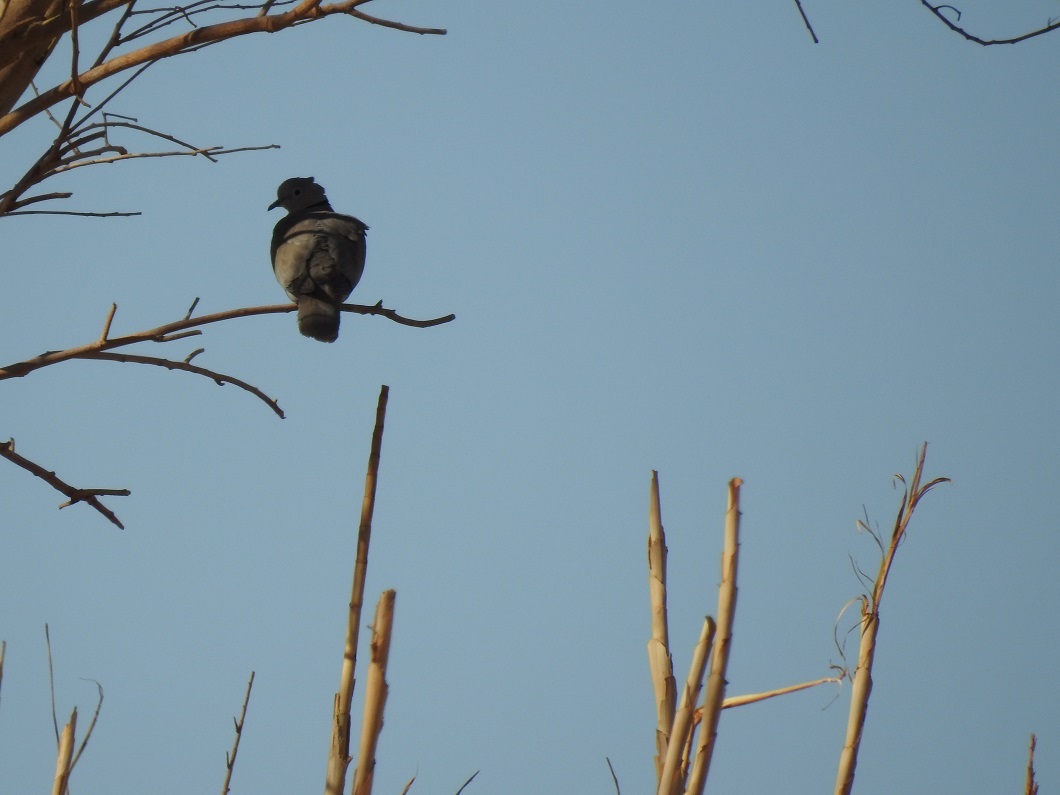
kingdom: Animalia
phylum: Chordata
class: Aves
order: Columbiformes
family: Columbidae
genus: Streptopelia
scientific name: Streptopelia decaocto
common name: Eurasian collared dove
